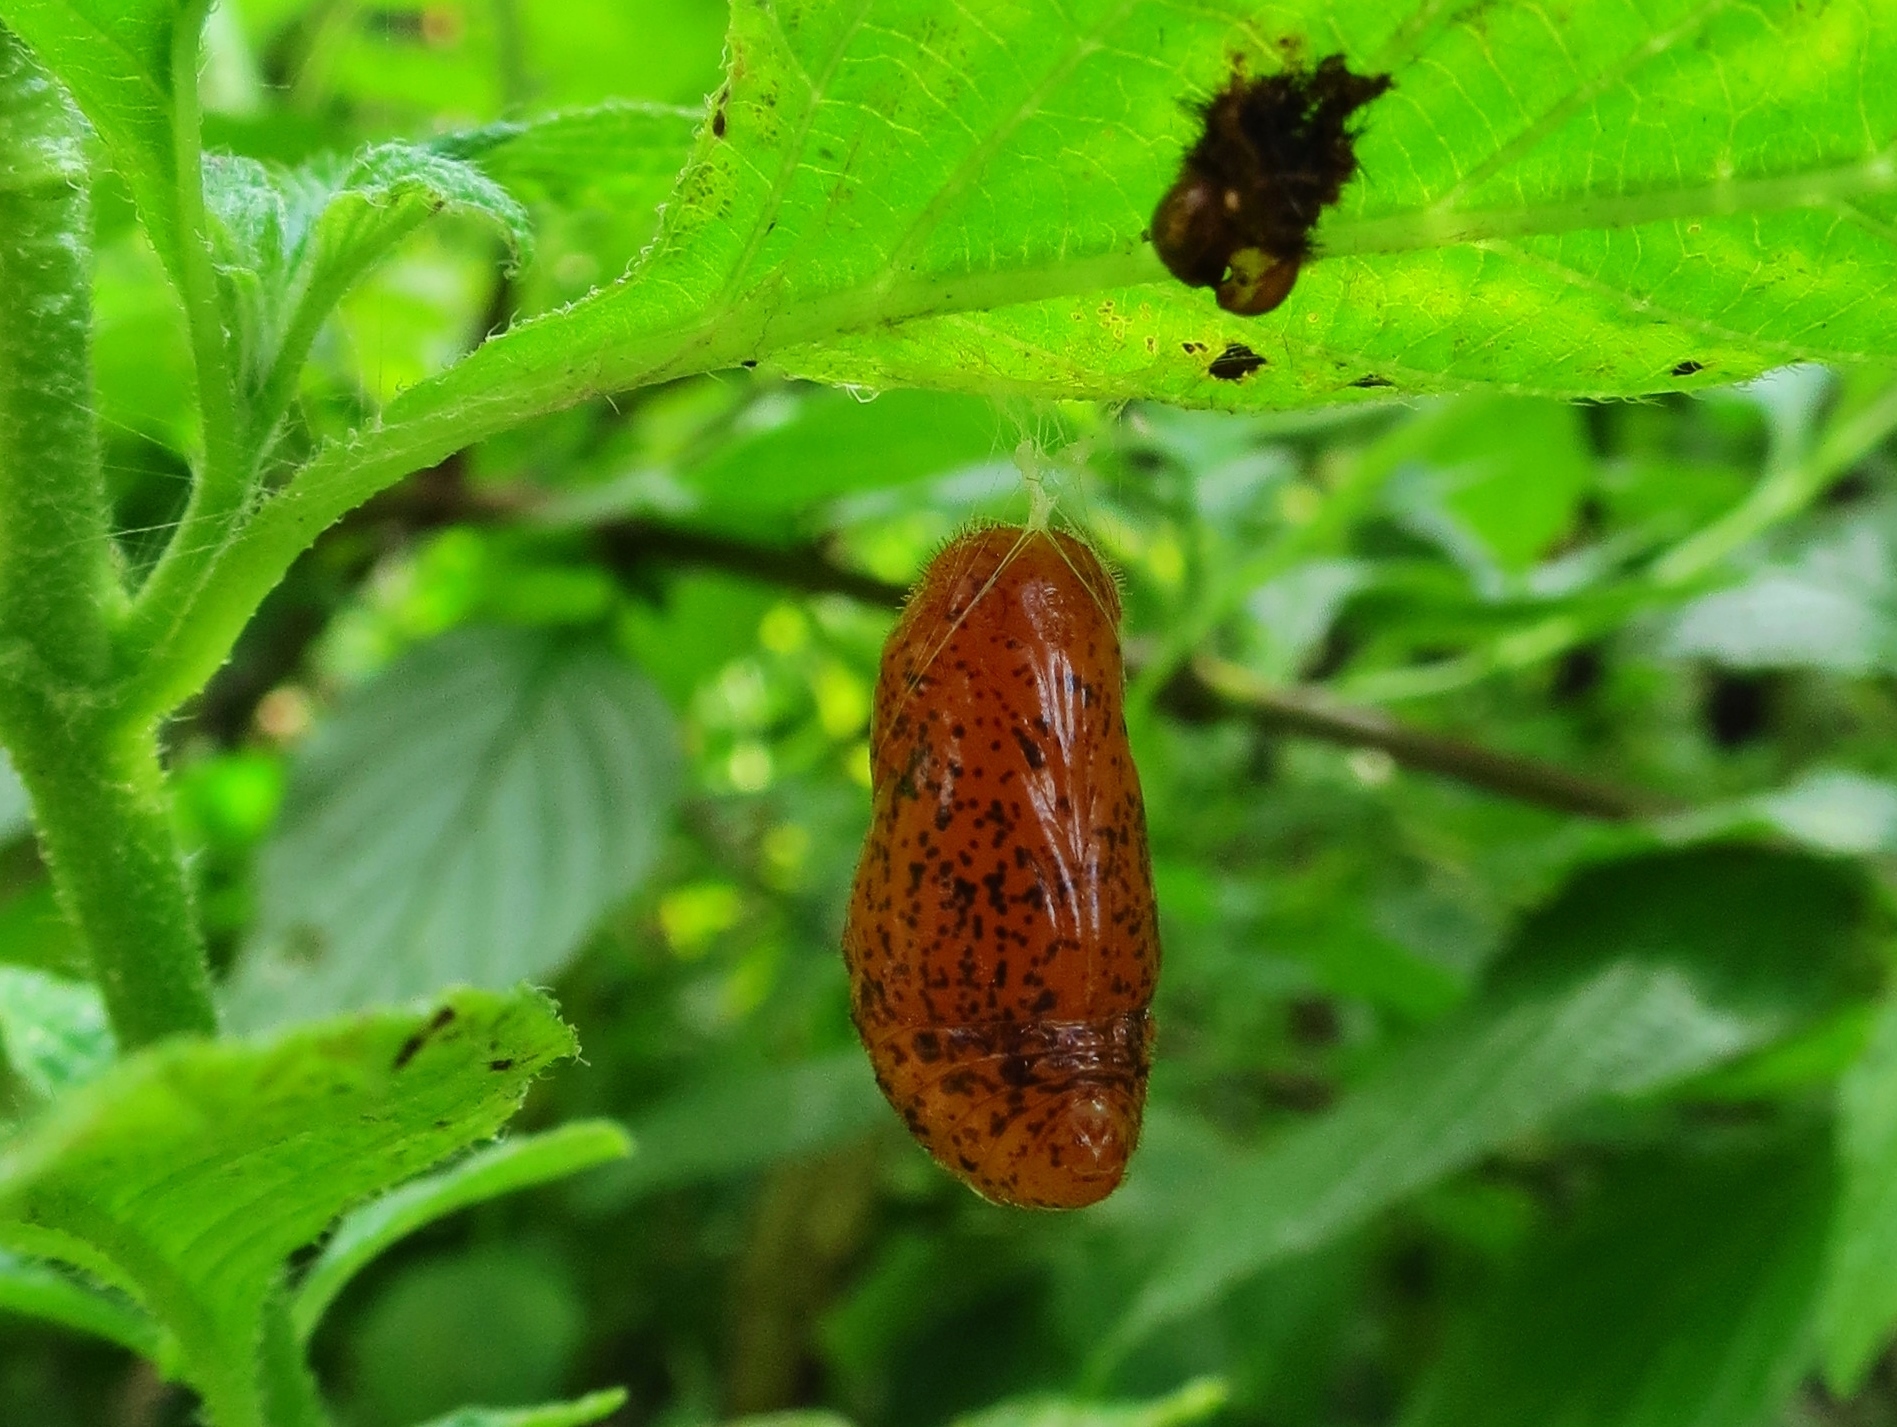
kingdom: Animalia
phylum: Arthropoda
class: Insecta
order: Lepidoptera
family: Lycaenidae
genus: Eumaeus
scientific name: Eumaeus atala
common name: Atala
